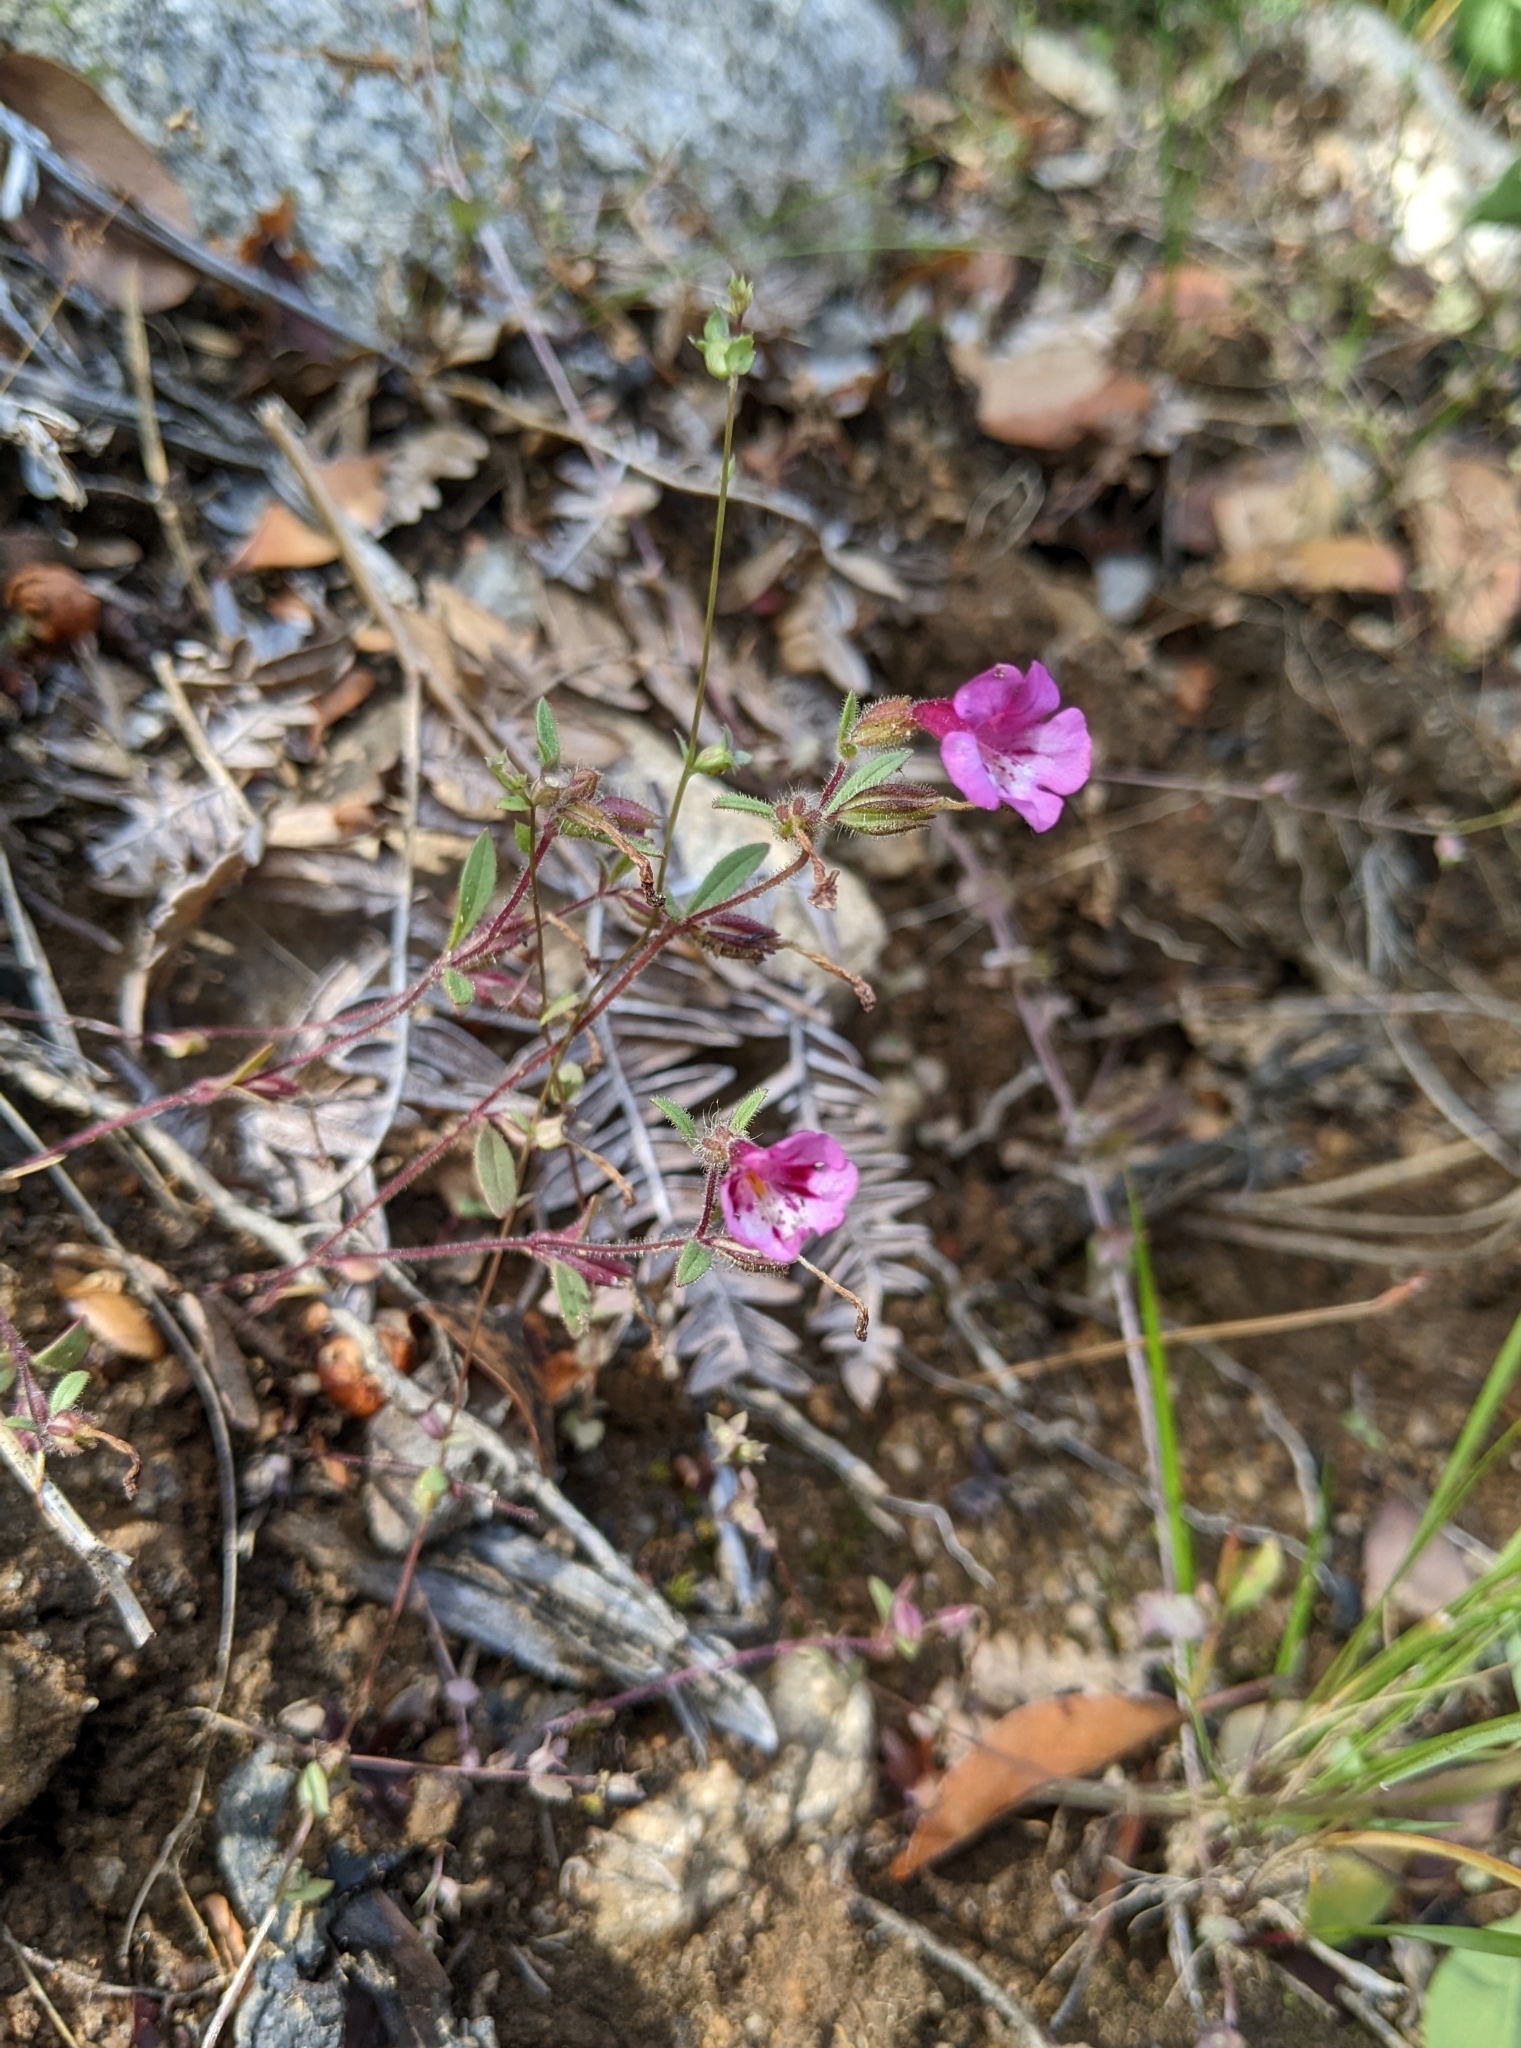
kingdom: Plantae
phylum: Tracheophyta
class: Magnoliopsida
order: Lamiales
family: Phrymaceae
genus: Diplacus
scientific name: Diplacus layneae
